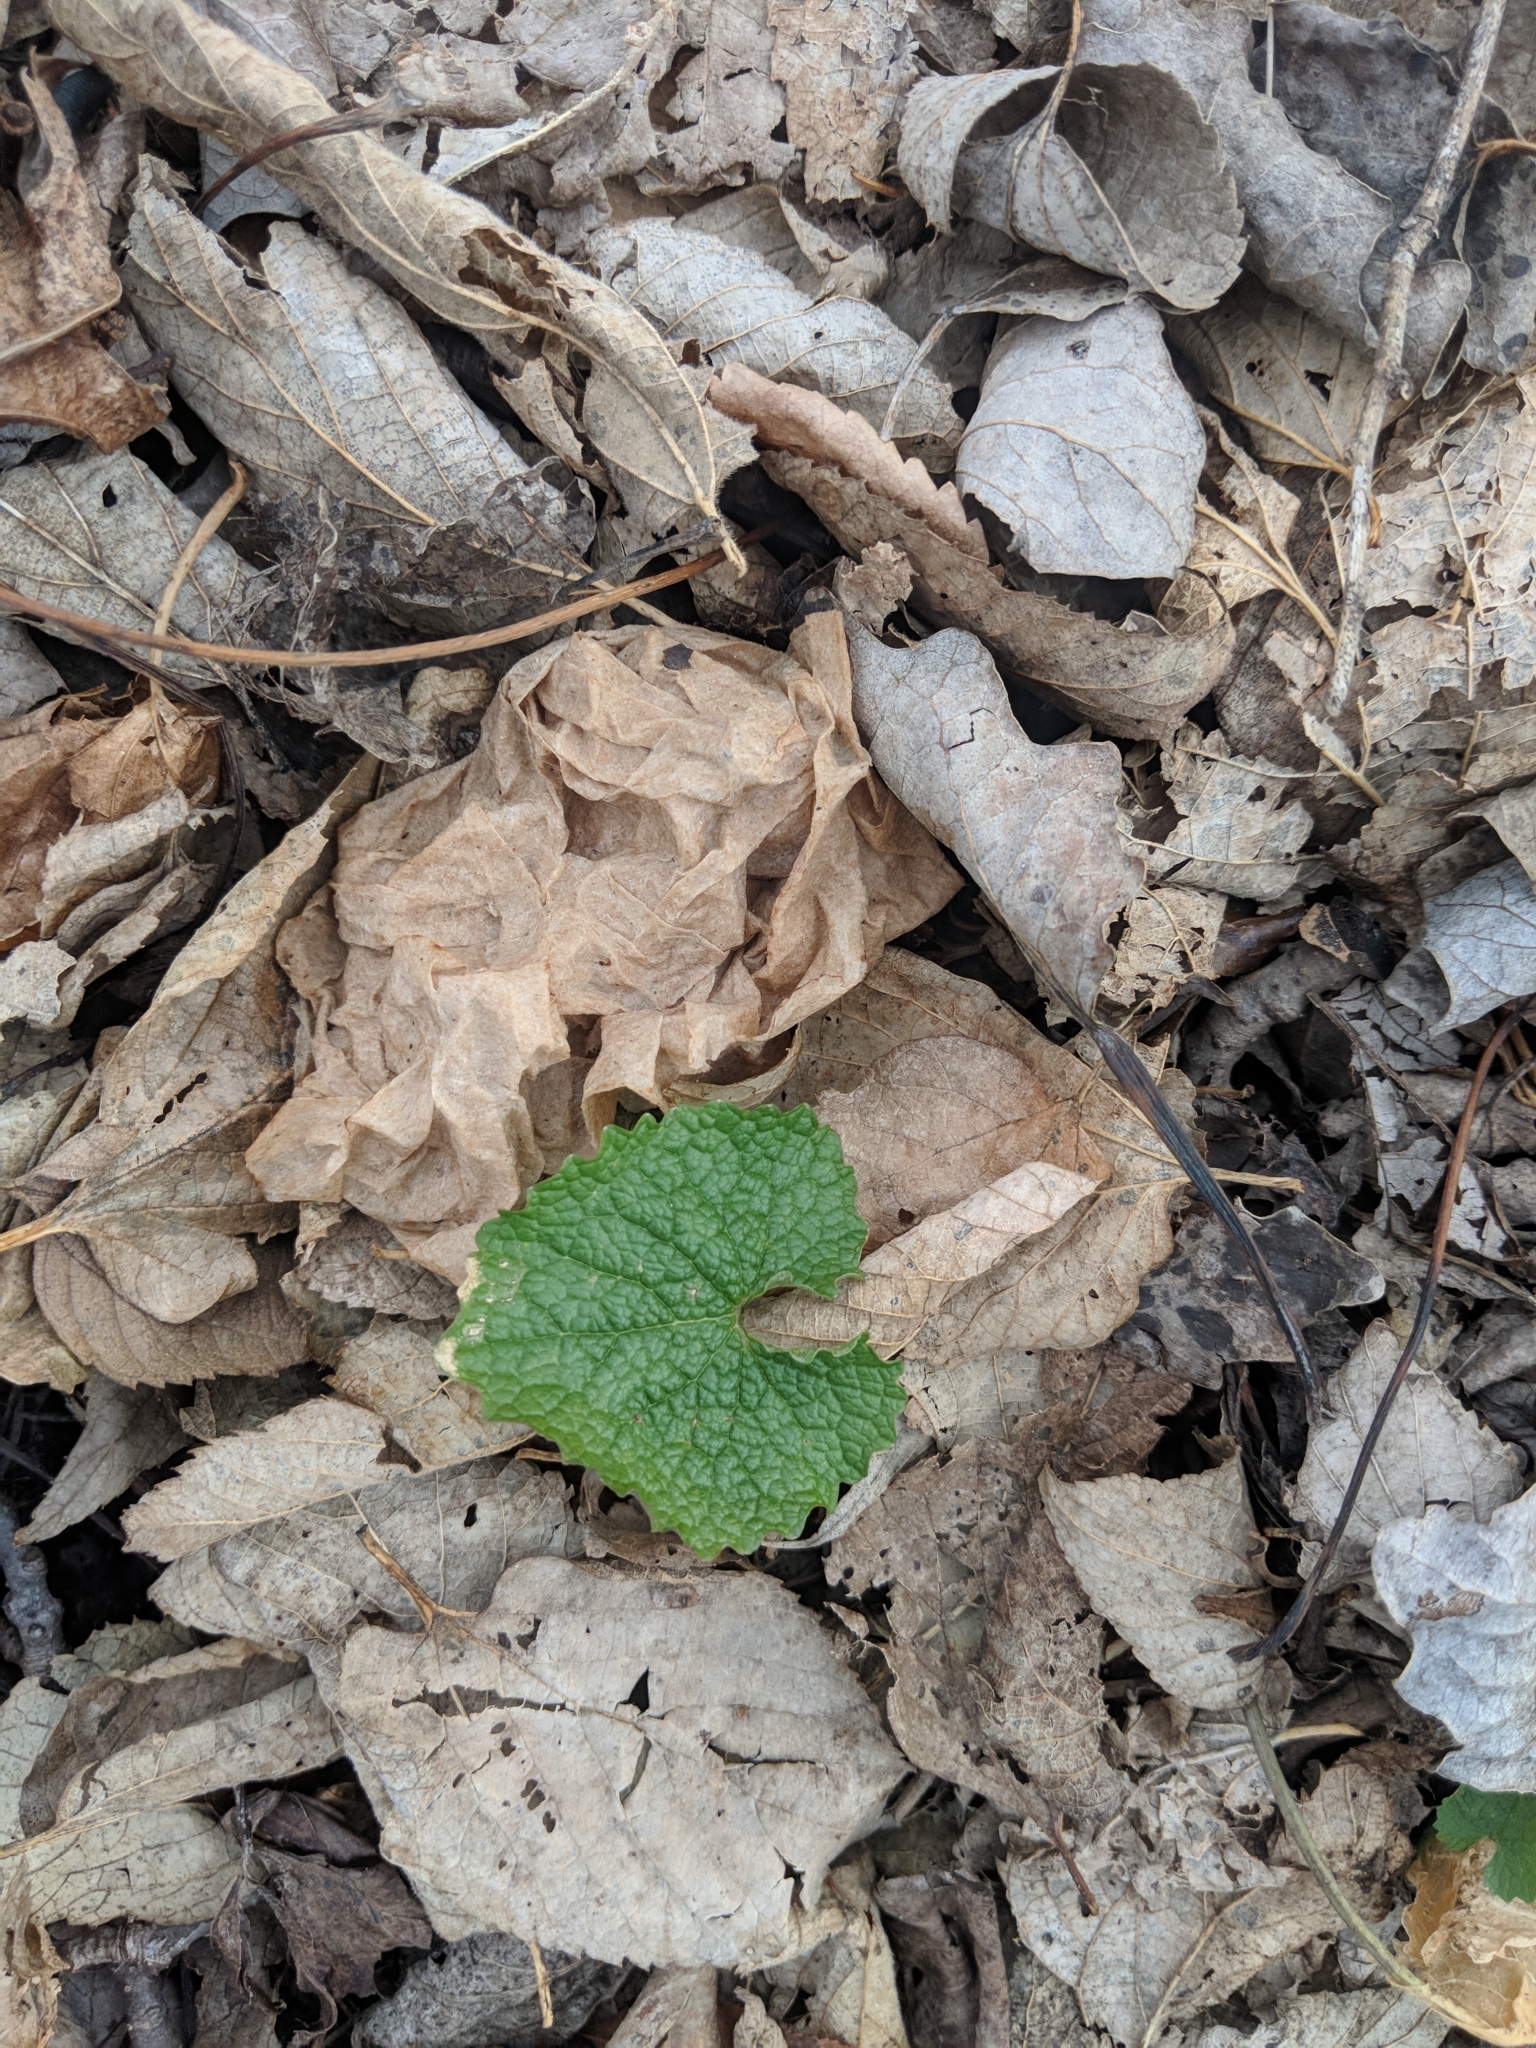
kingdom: Plantae
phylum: Tracheophyta
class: Magnoliopsida
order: Brassicales
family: Brassicaceae
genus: Alliaria
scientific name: Alliaria petiolata
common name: Garlic mustard
